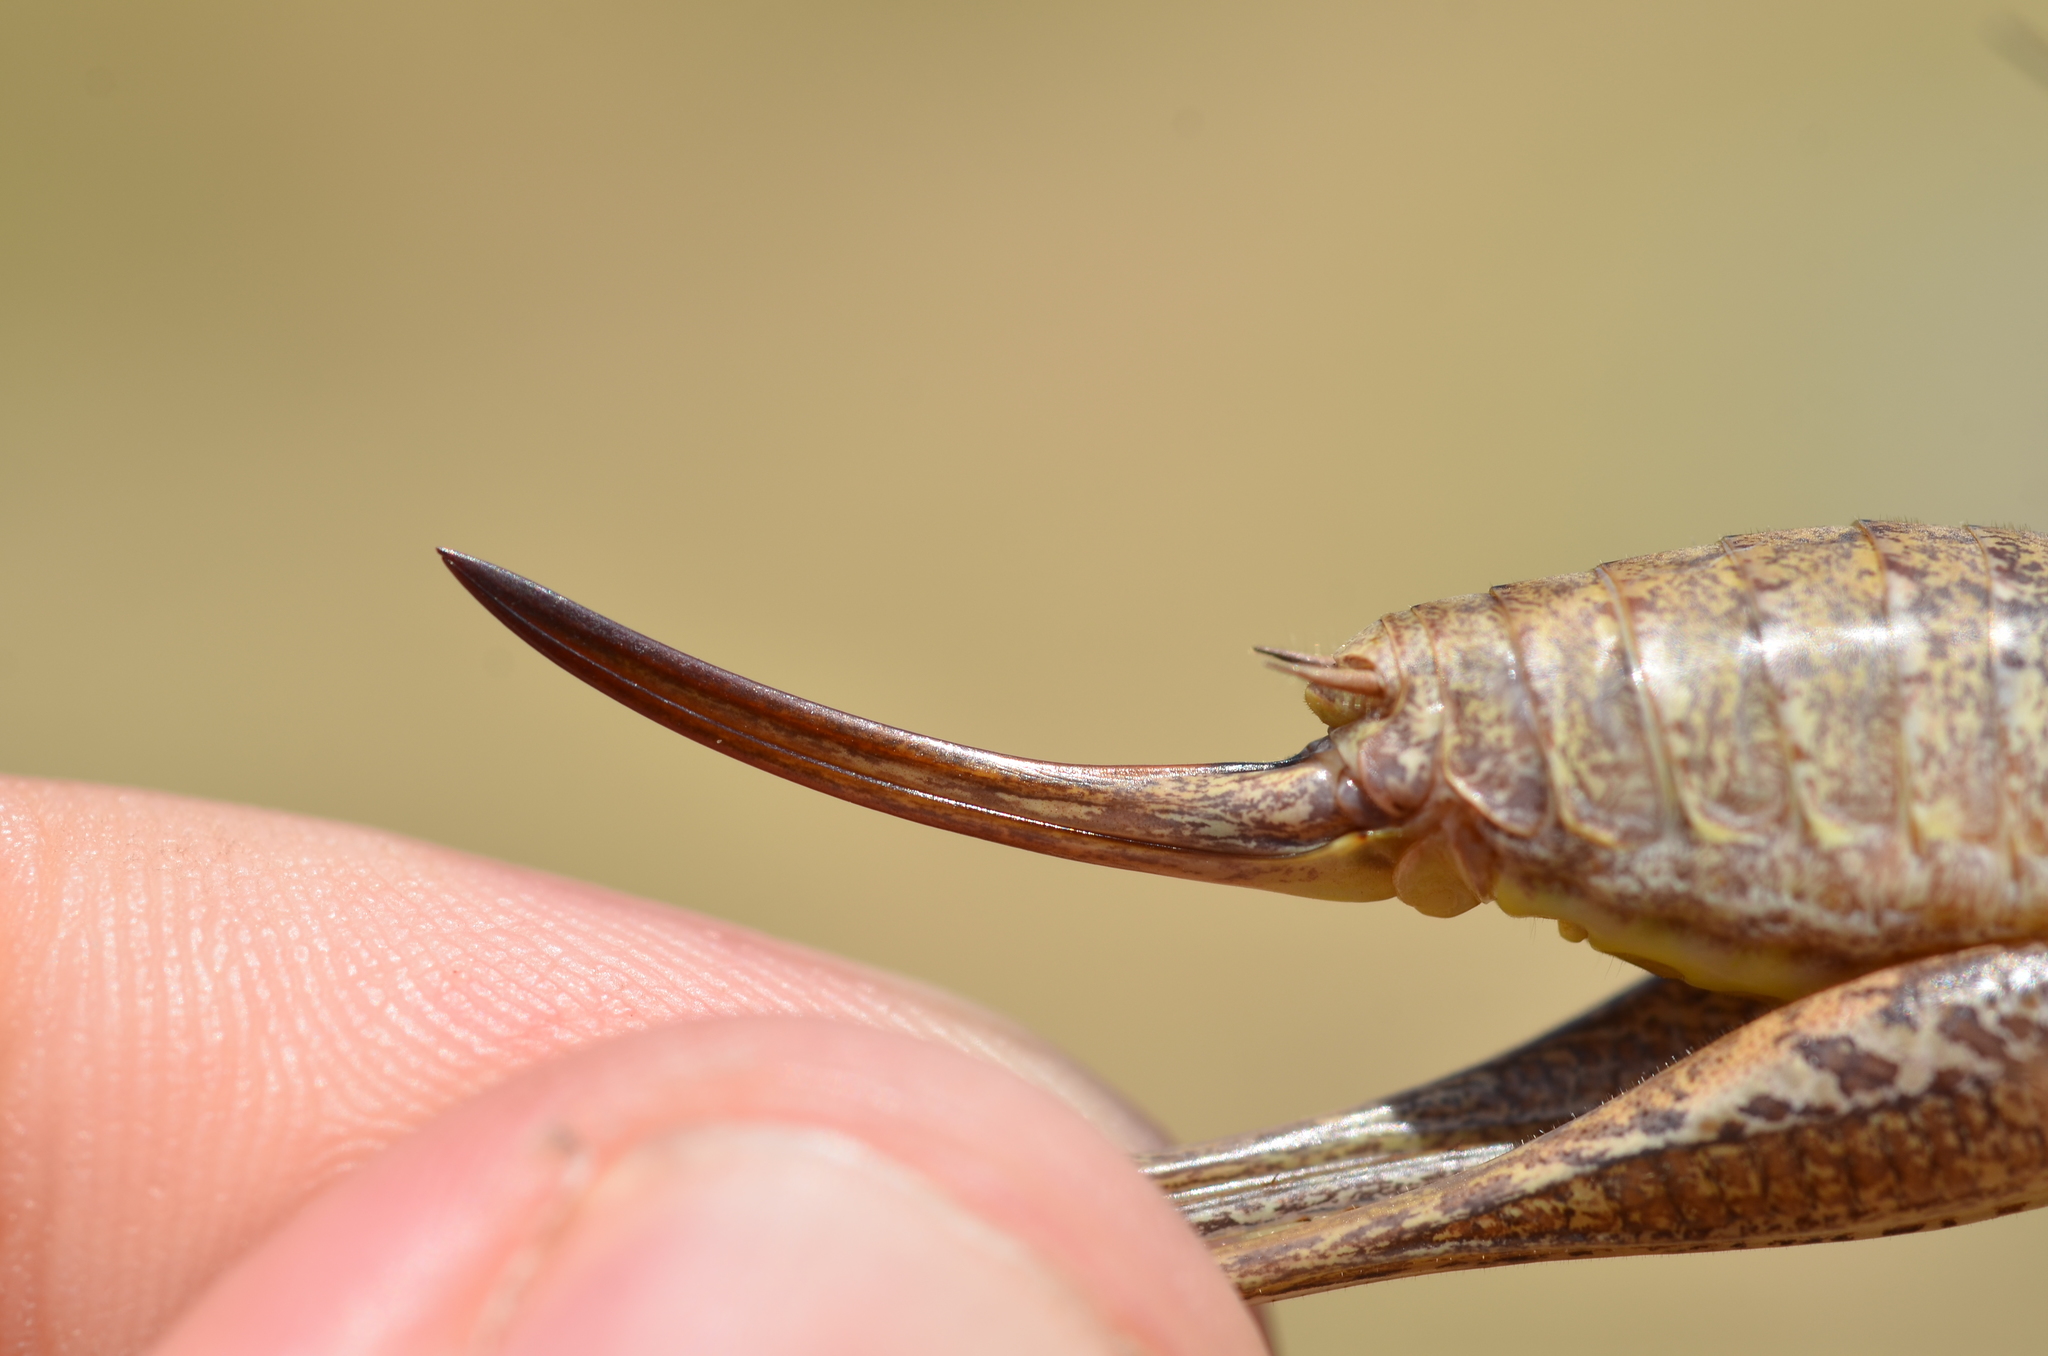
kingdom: Animalia
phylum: Arthropoda
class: Insecta
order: Orthoptera
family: Tettigoniidae
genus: Pholidoptera
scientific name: Pholidoptera femorata
